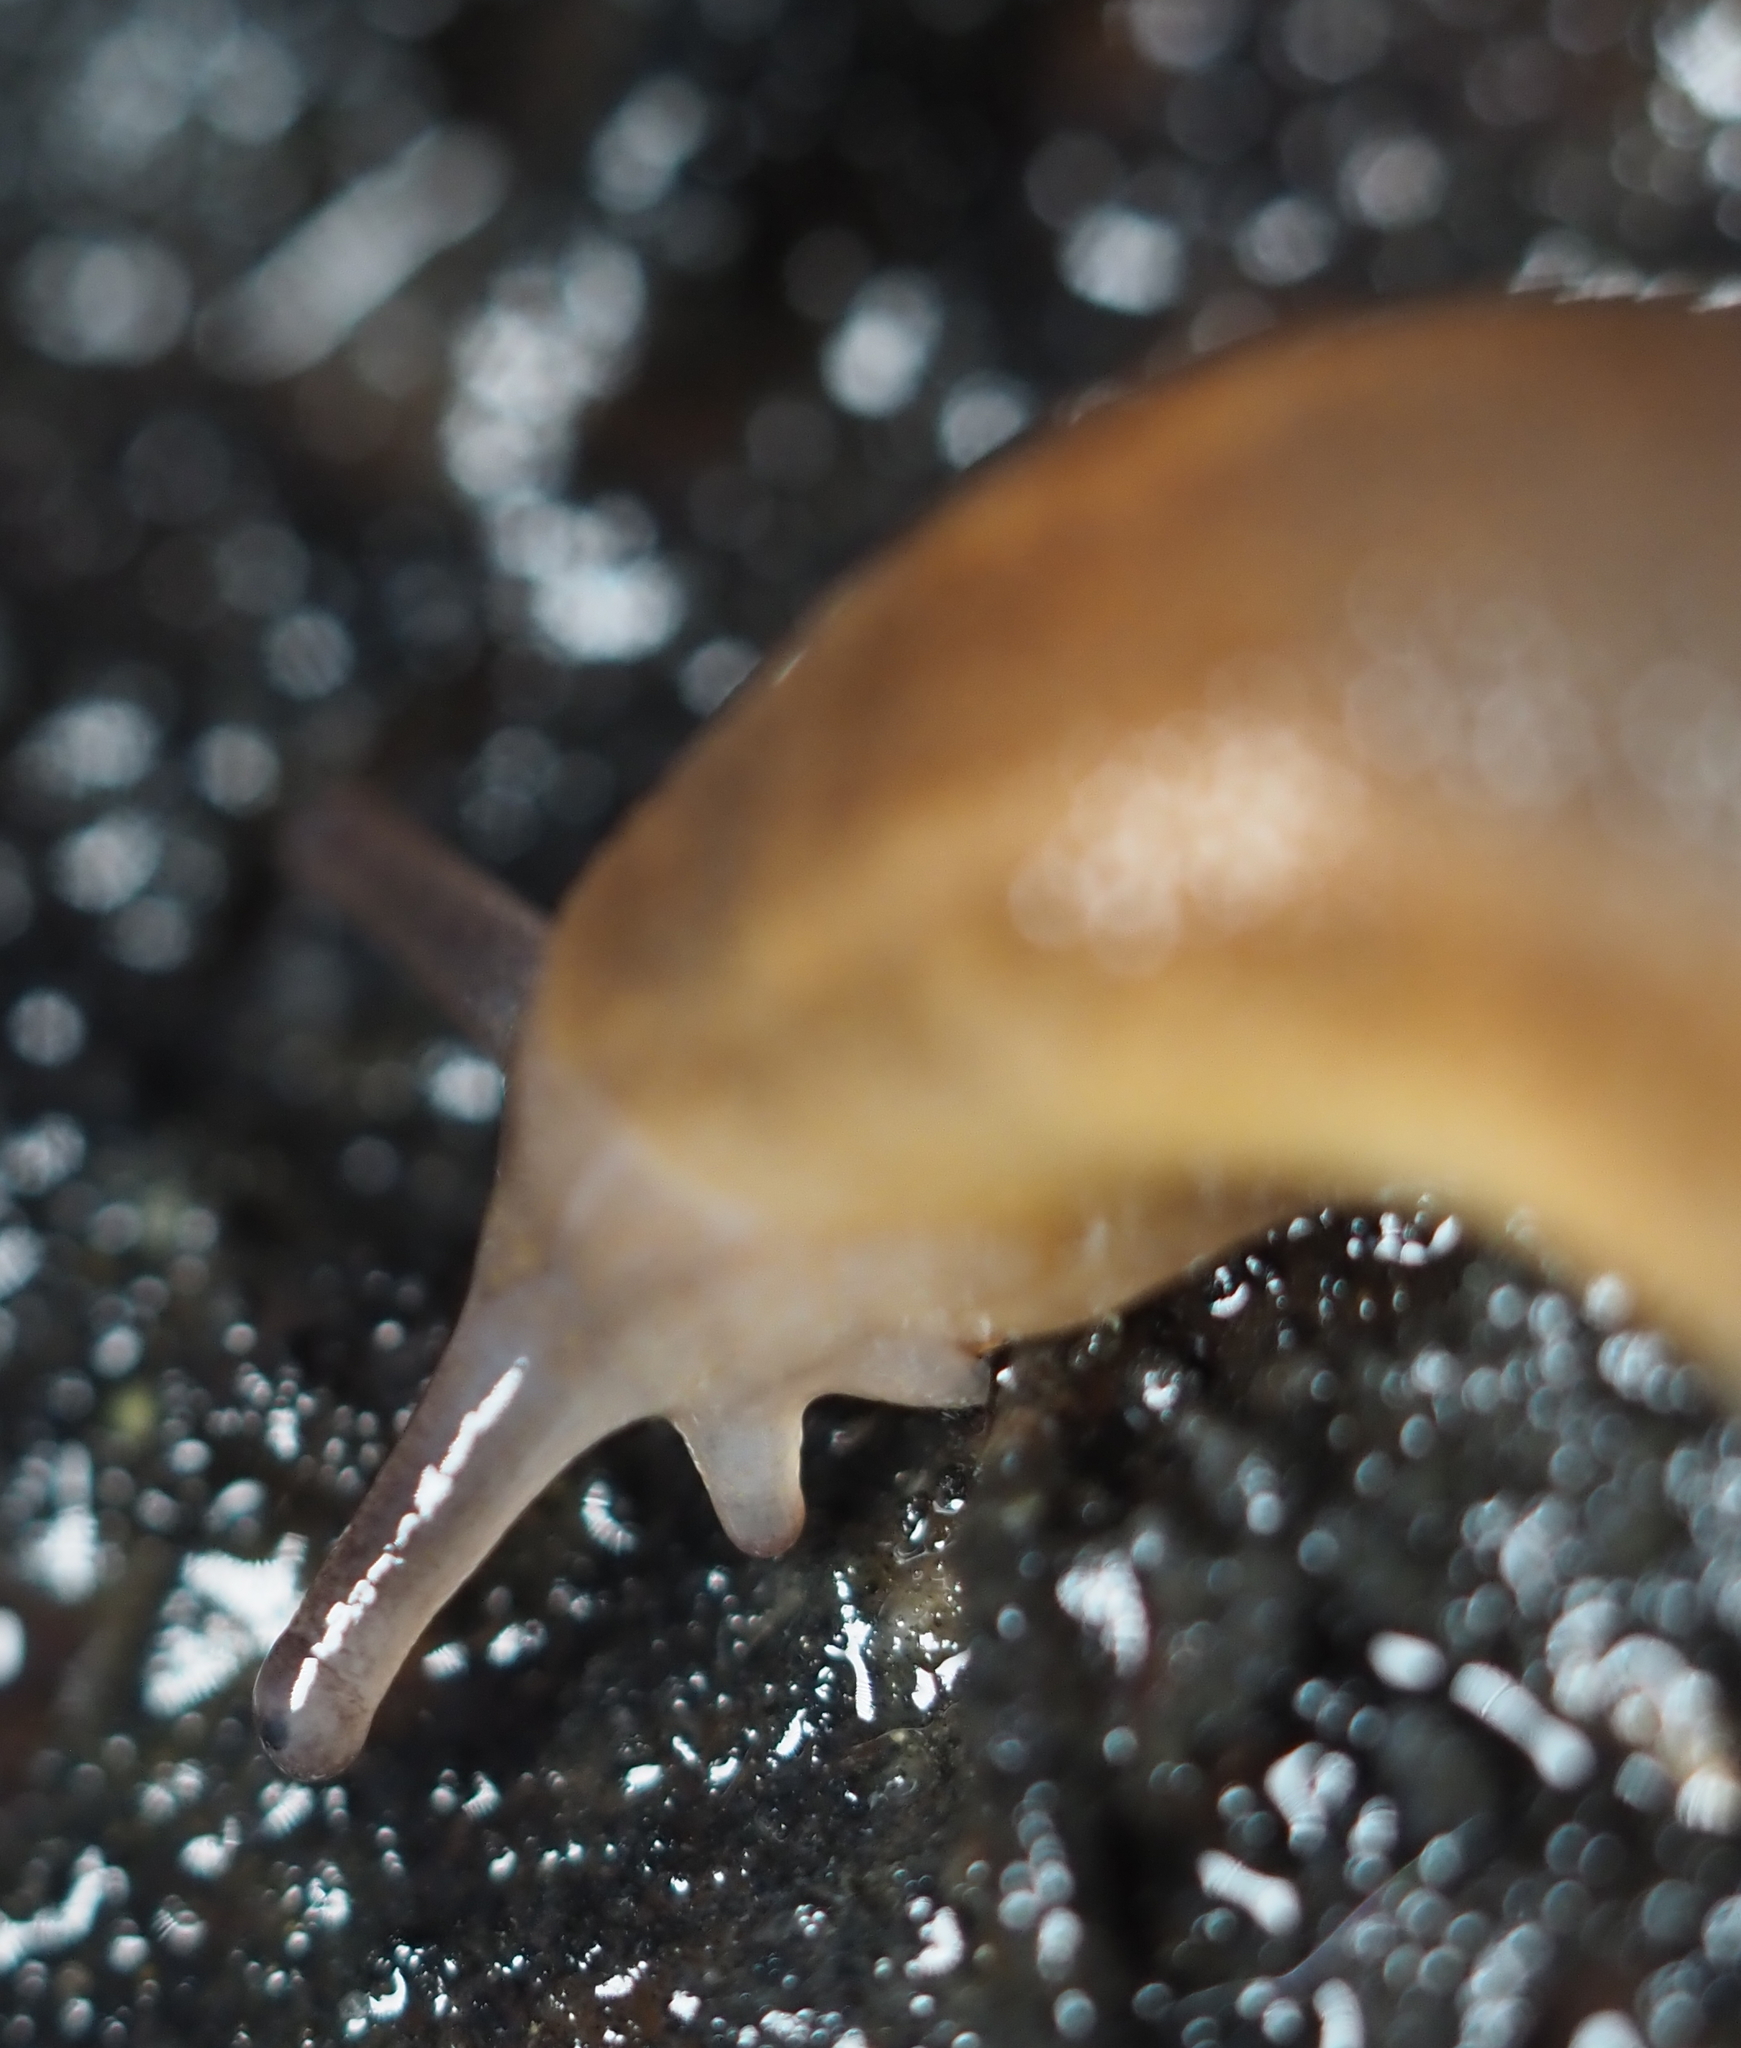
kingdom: Animalia
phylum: Mollusca
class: Gastropoda
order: Stylommatophora
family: Arionidae
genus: Arion
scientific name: Arion subfuscus
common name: Dusky arion
